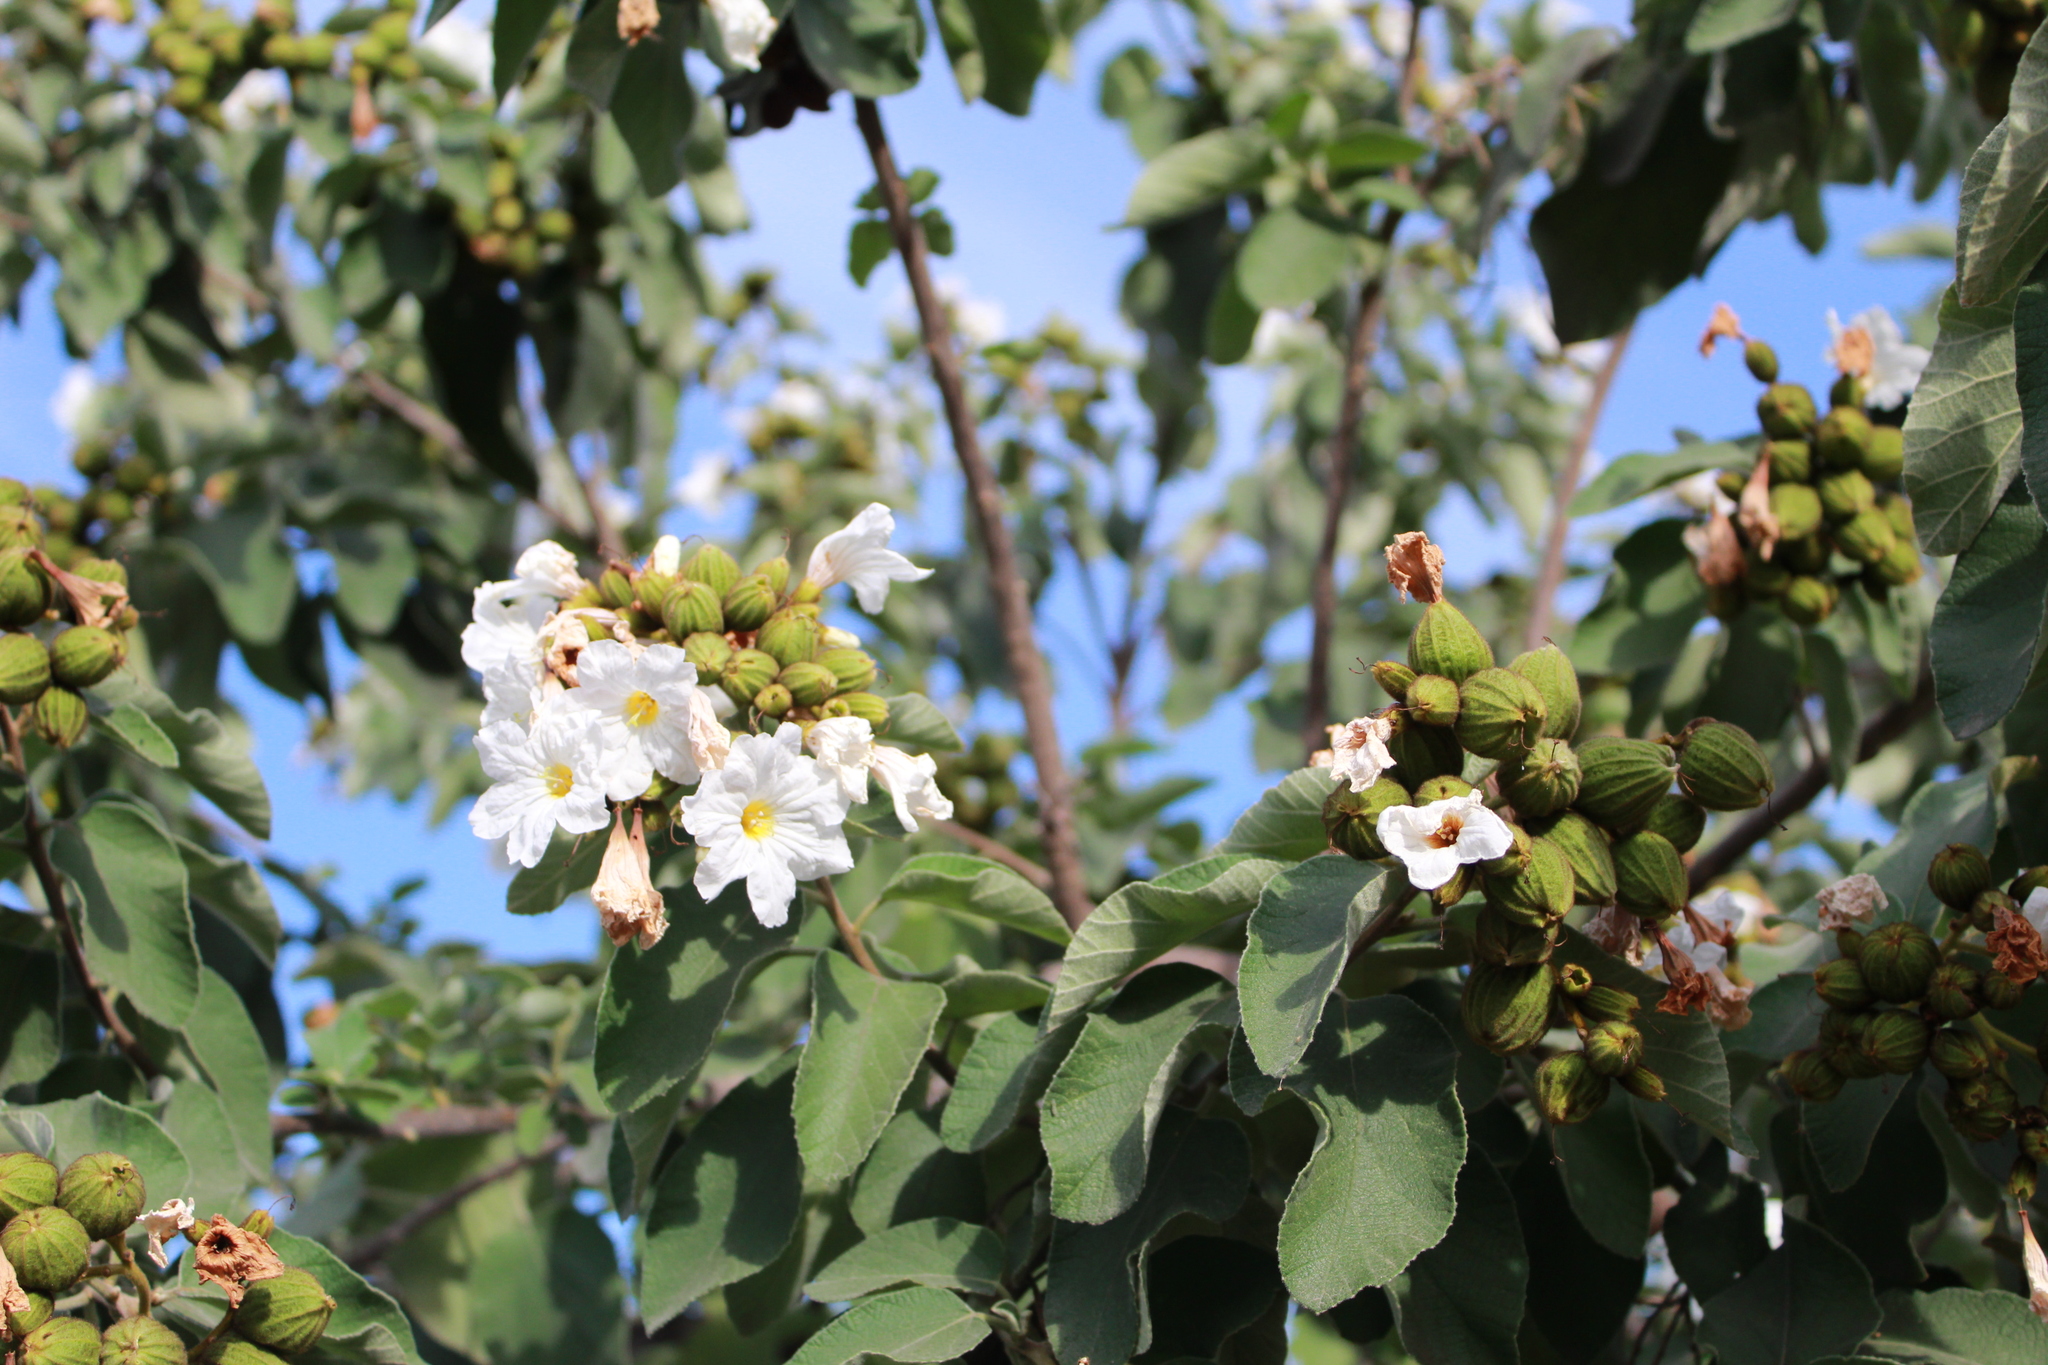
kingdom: Plantae
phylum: Tracheophyta
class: Magnoliopsida
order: Boraginales
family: Cordiaceae
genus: Cordia
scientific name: Cordia boissieri
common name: Mexican-olive
